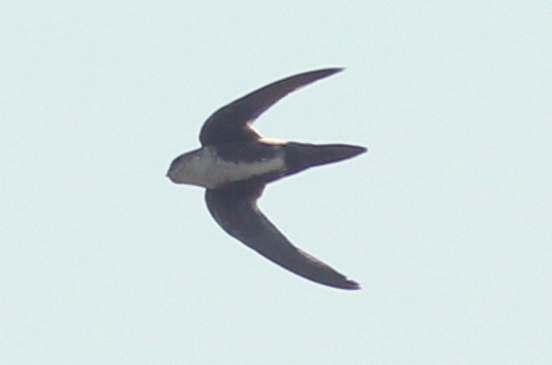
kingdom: Animalia
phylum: Chordata
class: Aves
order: Apodiformes
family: Apodidae
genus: Aeronautes
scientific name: Aeronautes saxatalis
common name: White-throated swift
